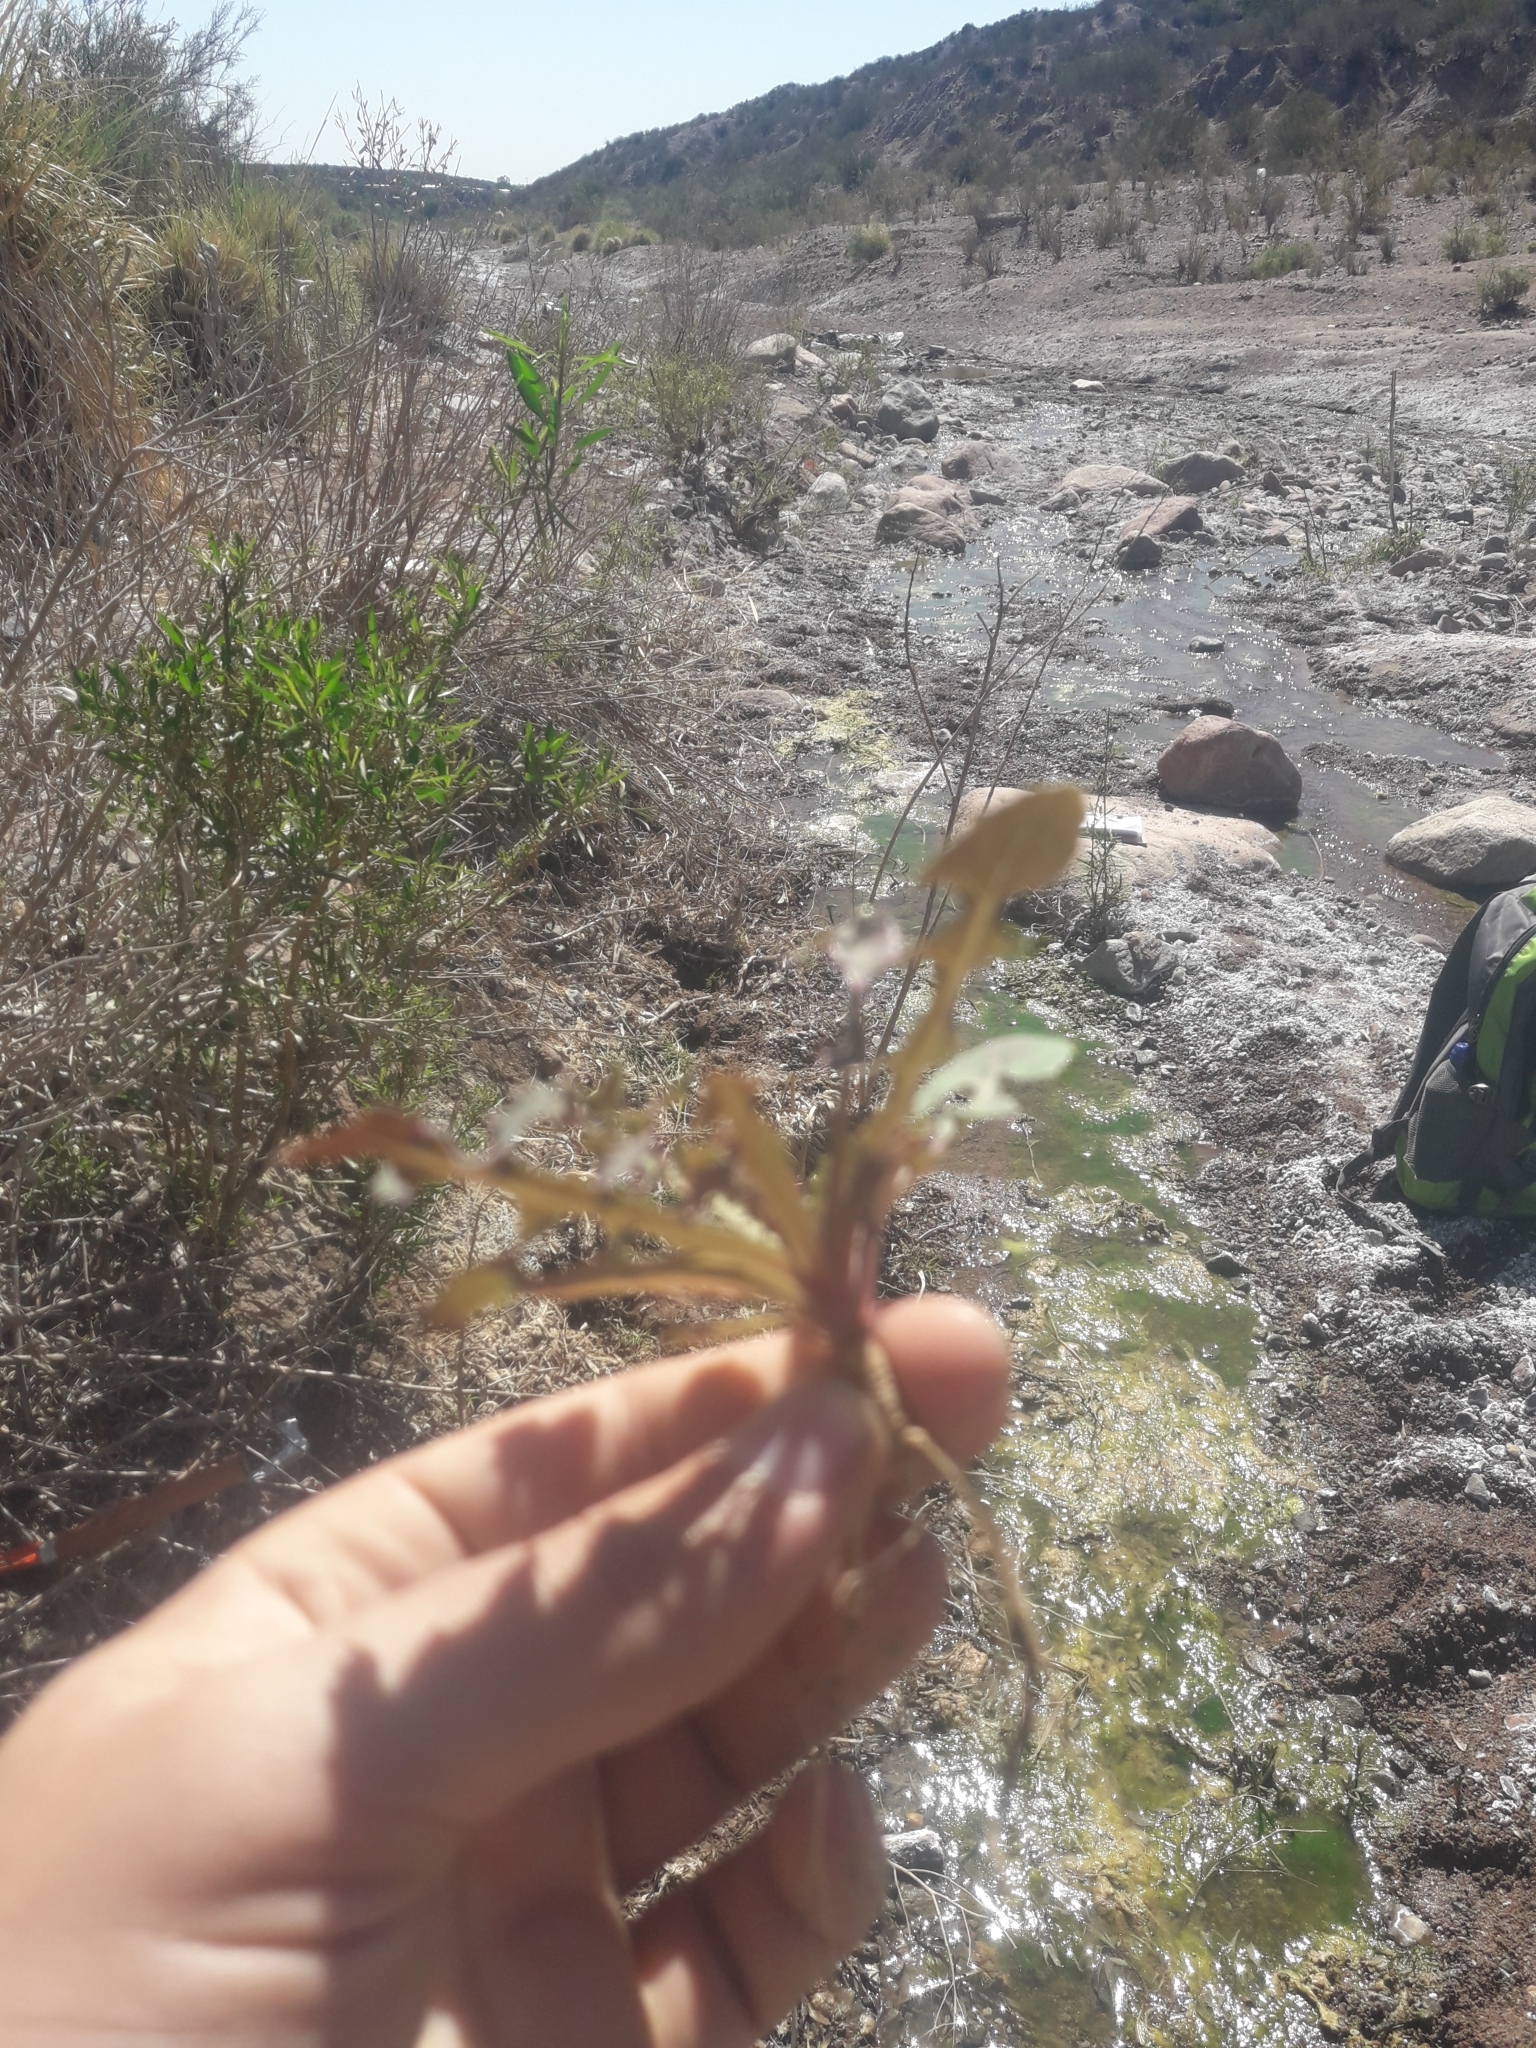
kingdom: Plantae
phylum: Tracheophyta
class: Magnoliopsida
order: Asterales
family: Asteraceae
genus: Sonchus
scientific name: Sonchus oleraceus
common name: Common sowthistle
